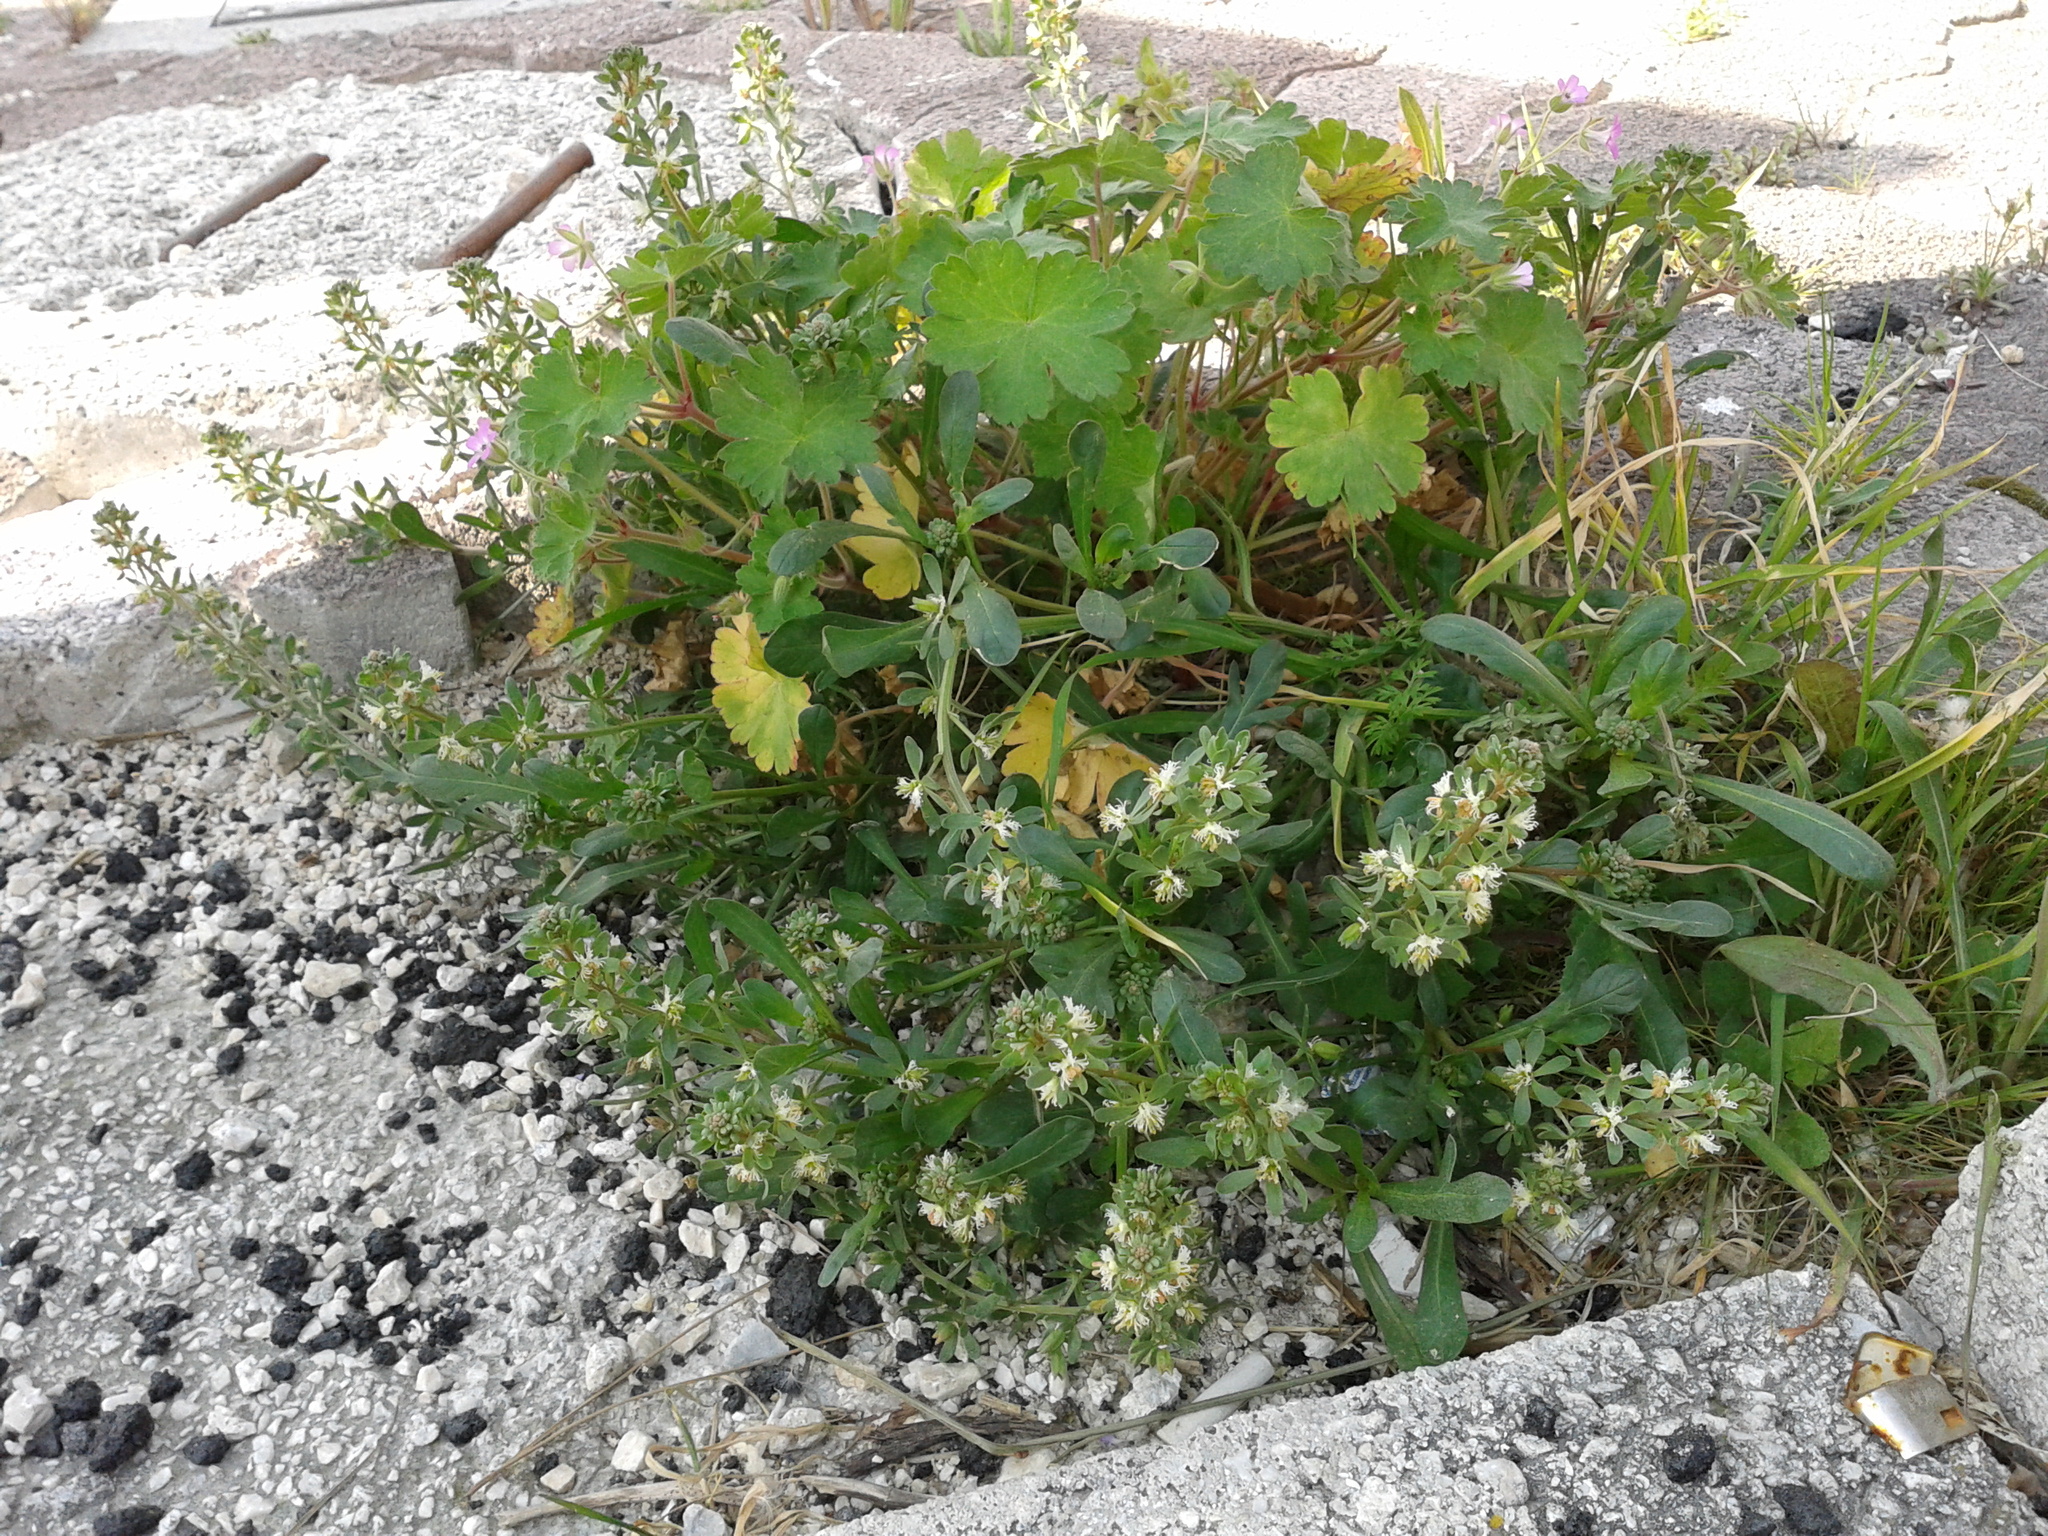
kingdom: Plantae
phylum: Tracheophyta
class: Magnoliopsida
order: Brassicales
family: Resedaceae
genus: Reseda
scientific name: Reseda phyteuma
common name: Corn mignonette
